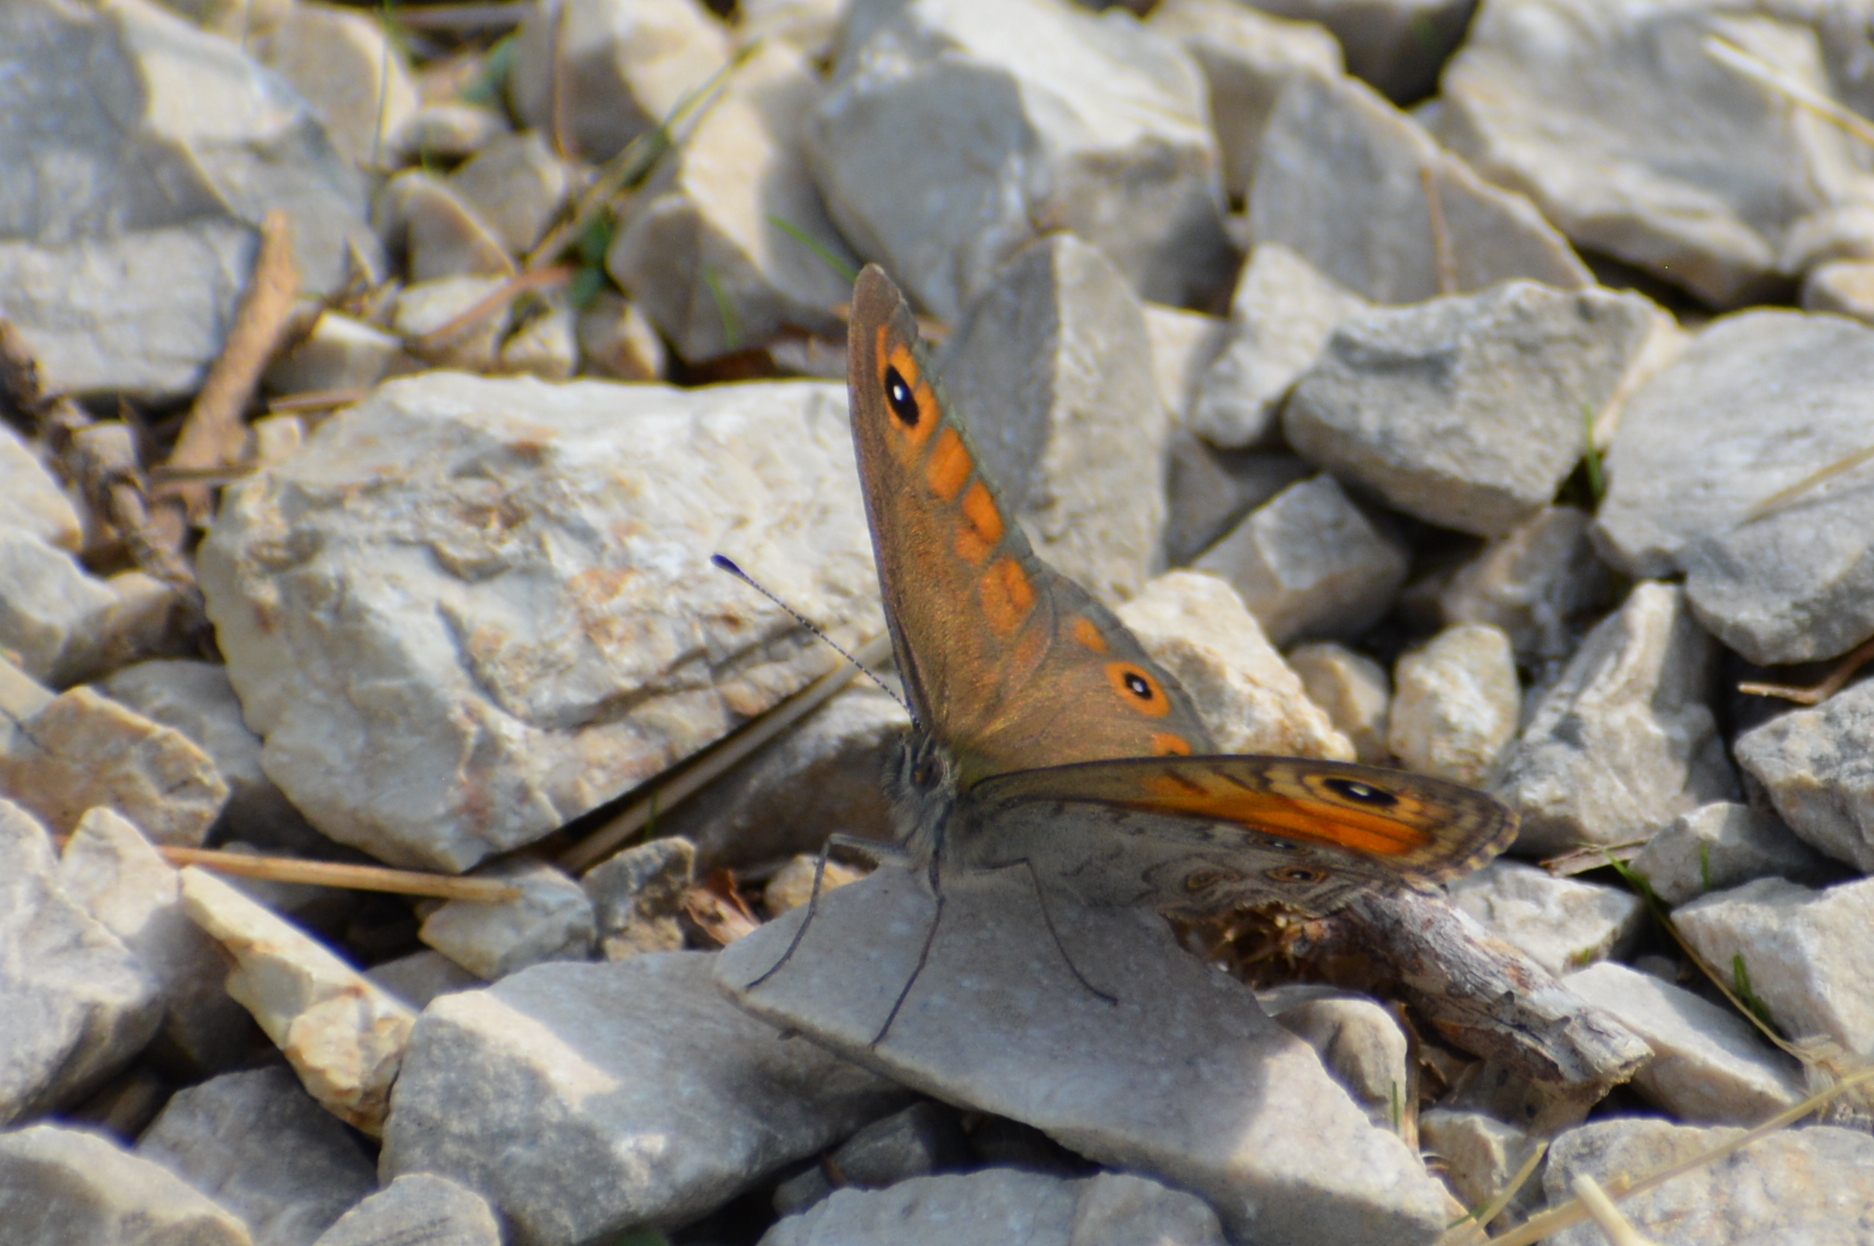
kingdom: Animalia
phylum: Arthropoda
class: Insecta
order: Lepidoptera
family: Nymphalidae
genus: Pararge
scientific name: Pararge Lasiommata maera
